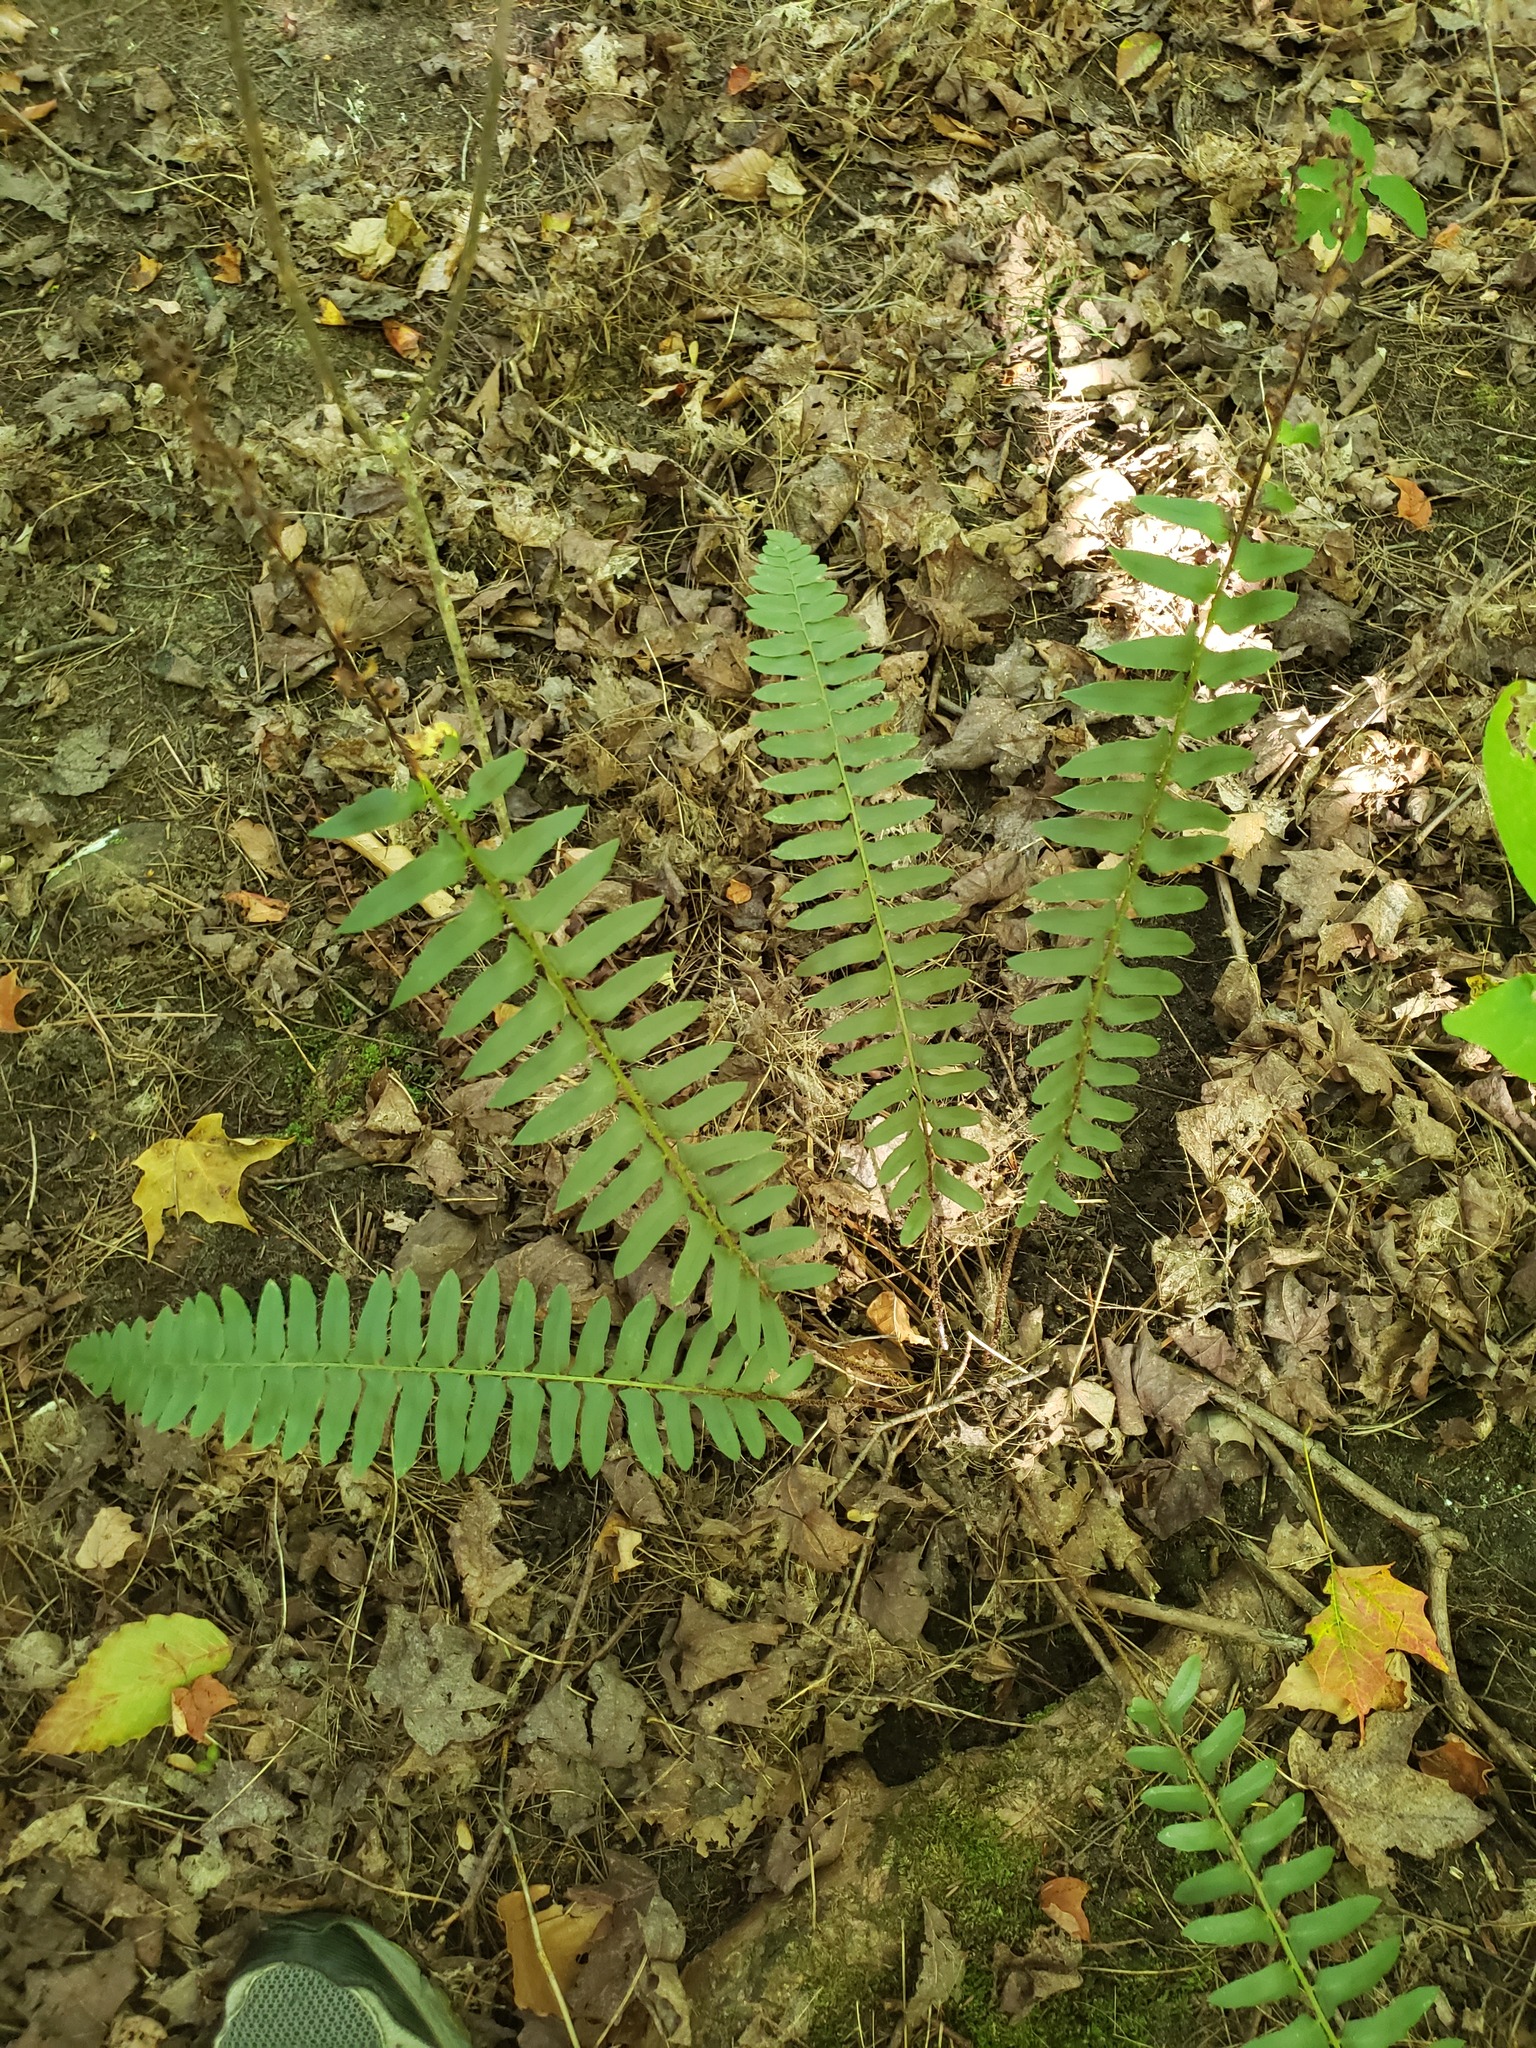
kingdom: Plantae
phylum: Tracheophyta
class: Polypodiopsida
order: Polypodiales
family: Dryopteridaceae
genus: Polystichum
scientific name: Polystichum acrostichoides
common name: Christmas fern
